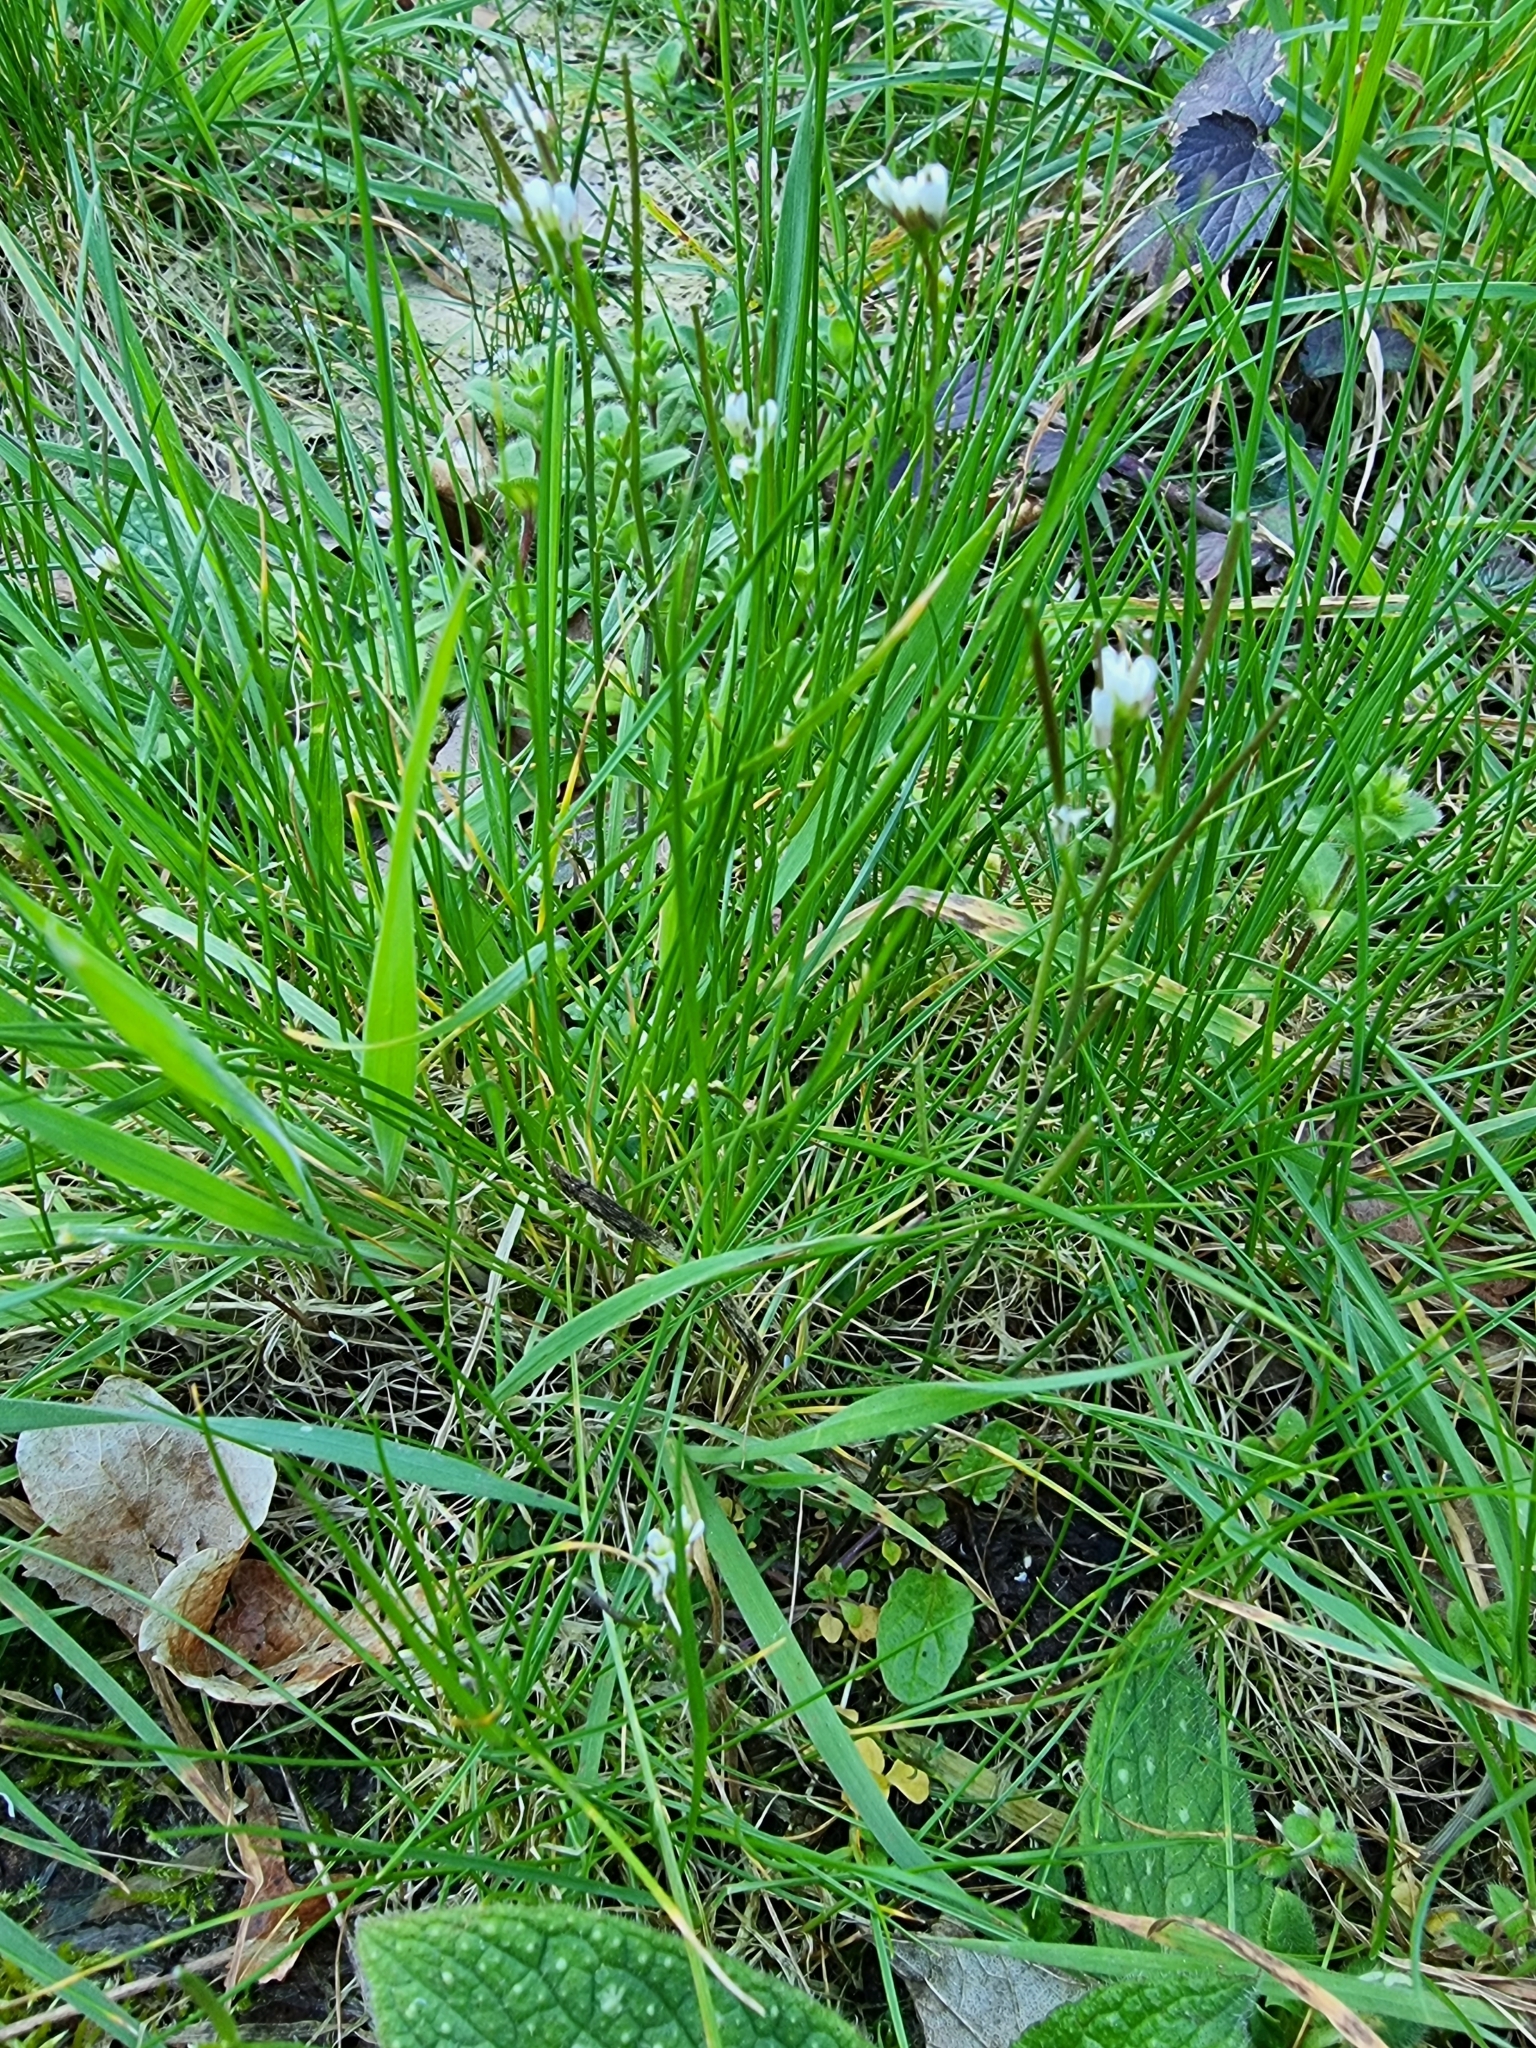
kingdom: Plantae
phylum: Tracheophyta
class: Magnoliopsida
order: Brassicales
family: Brassicaceae
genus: Cardamine
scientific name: Cardamine hirsuta
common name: Hairy bittercress
